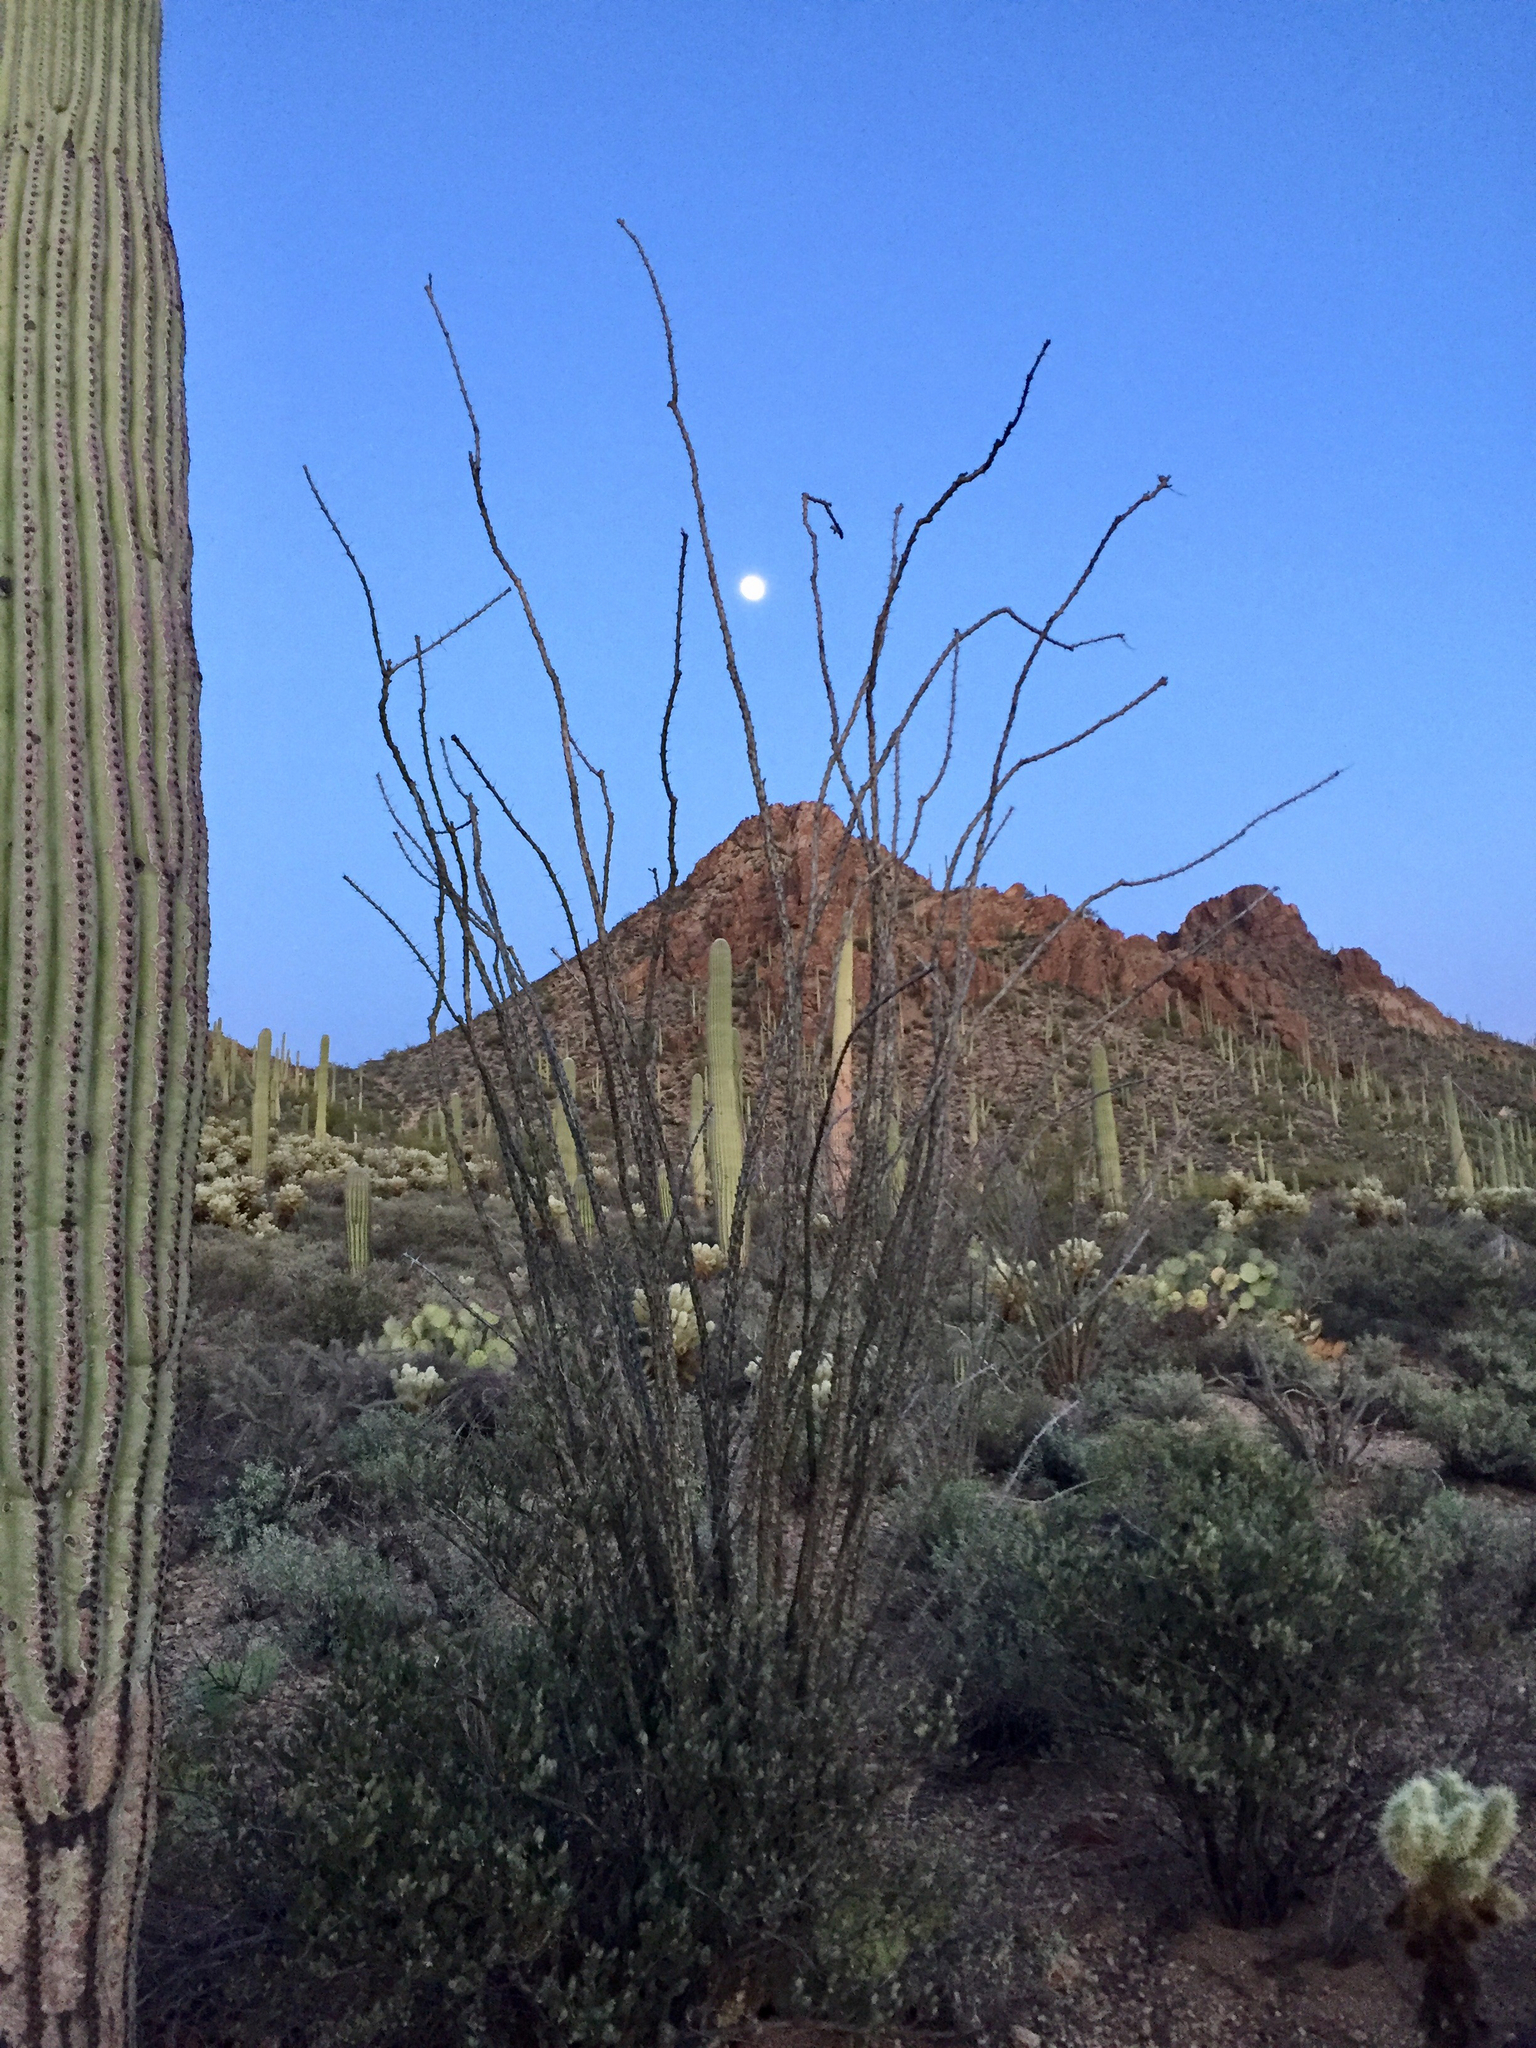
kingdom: Plantae
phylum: Tracheophyta
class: Magnoliopsida
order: Ericales
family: Fouquieriaceae
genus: Fouquieria
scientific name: Fouquieria splendens
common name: Vine-cactus
